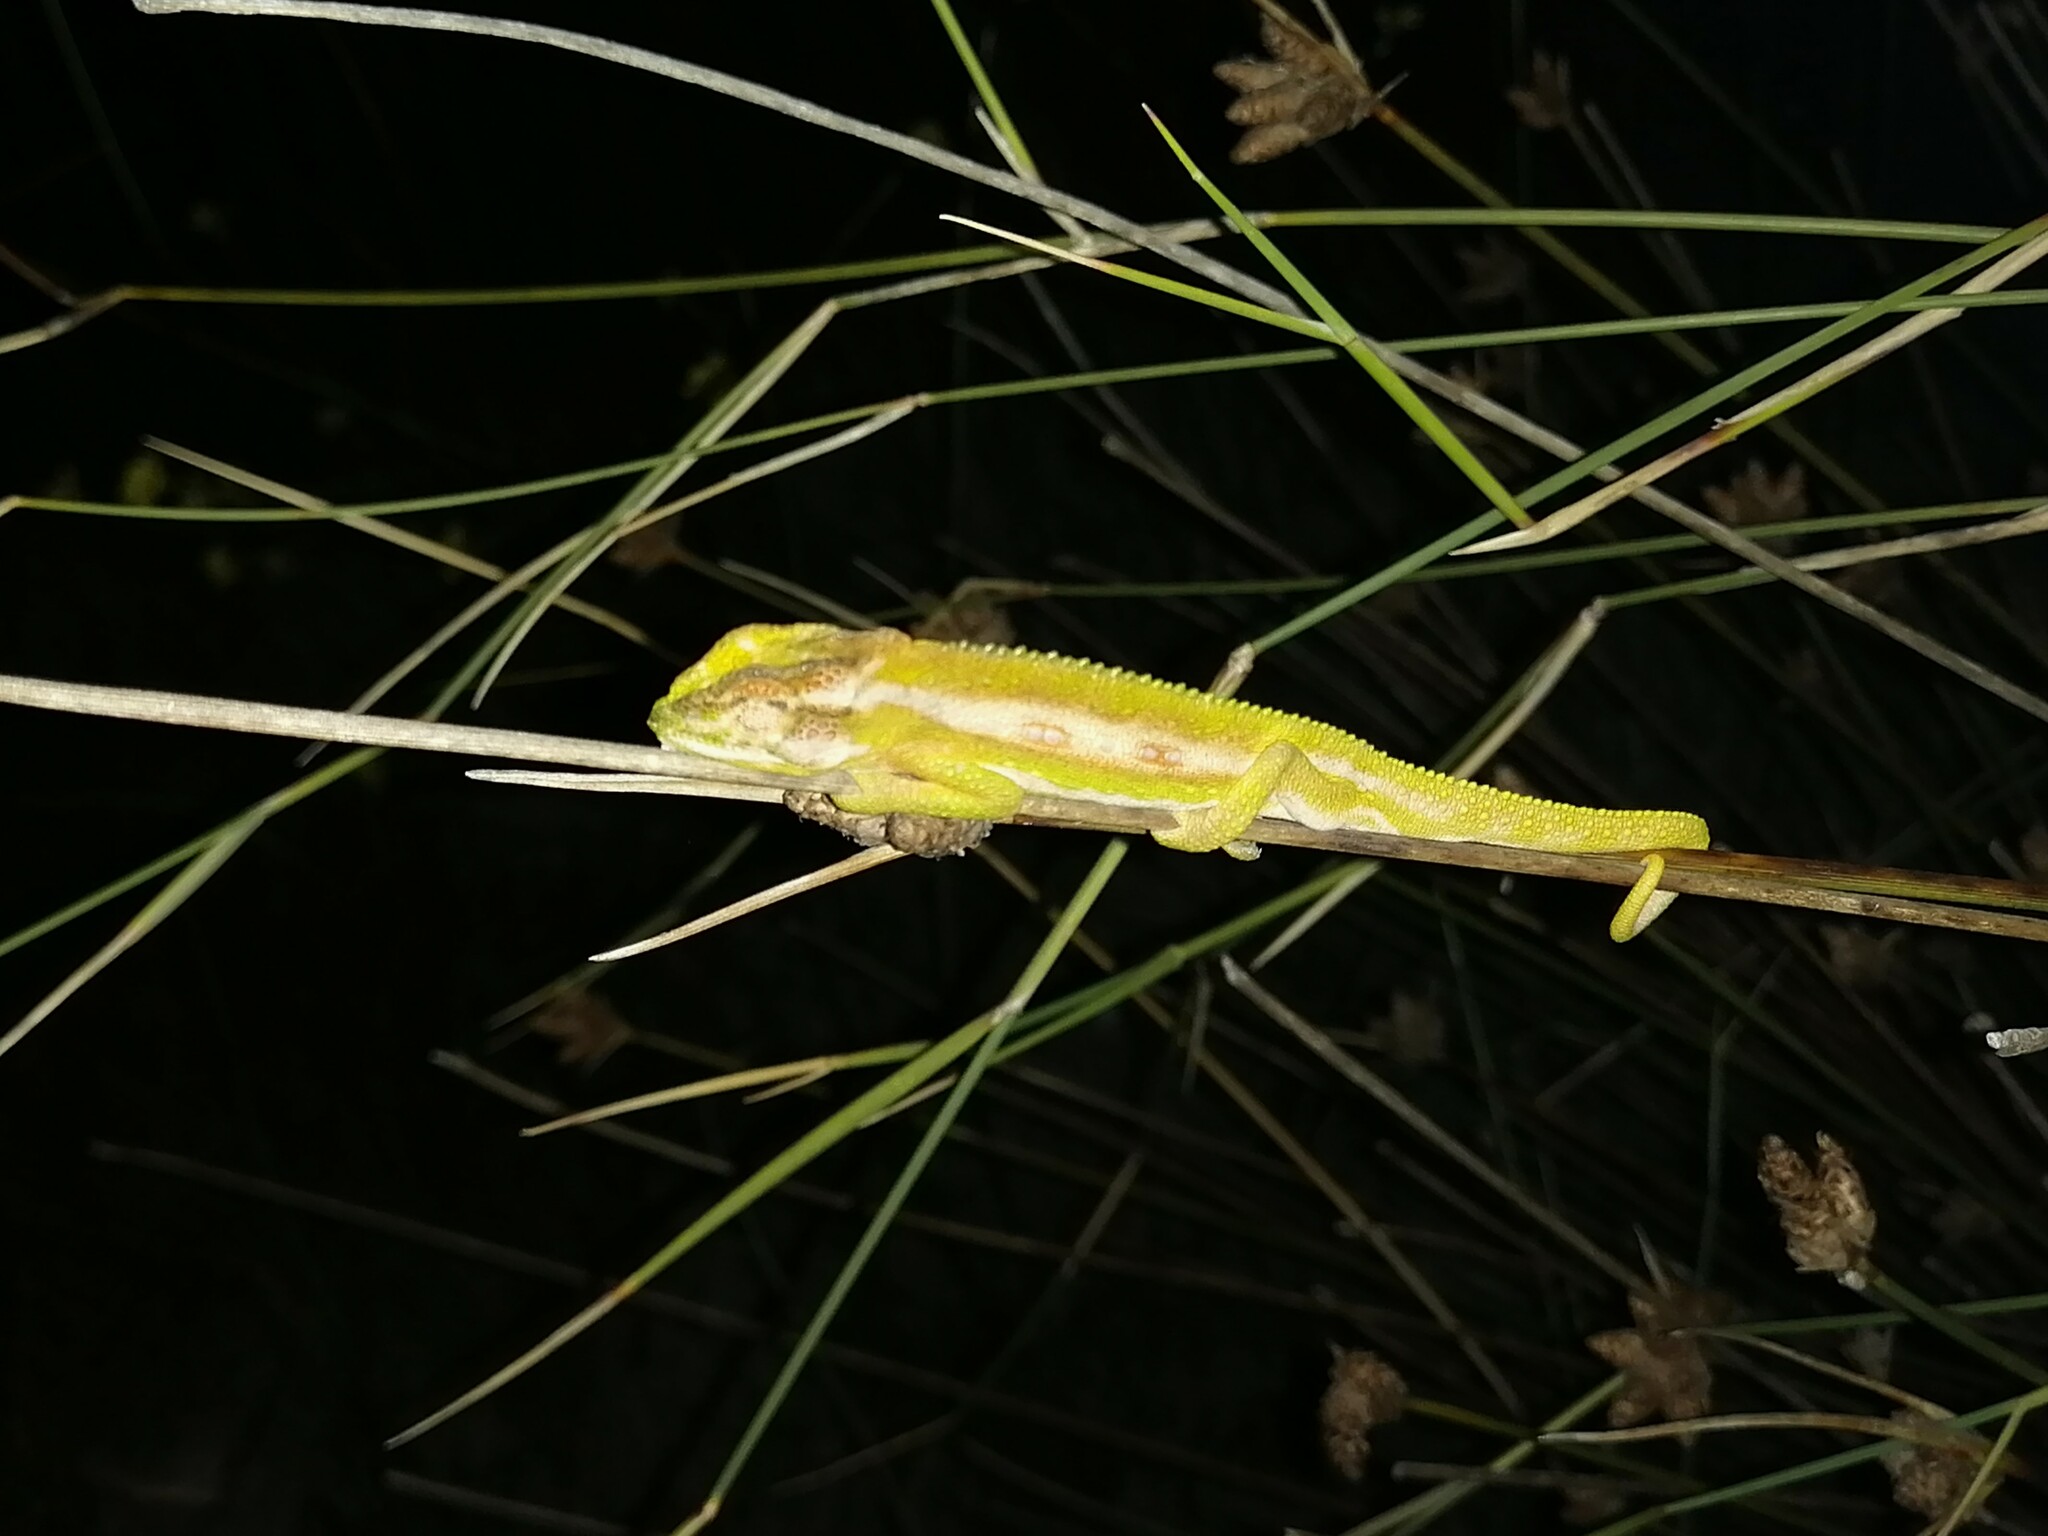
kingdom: Animalia
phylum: Chordata
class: Squamata
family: Chamaeleonidae
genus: Bradypodion
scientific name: Bradypodion pumilum
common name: Cape dwarf chameleon
